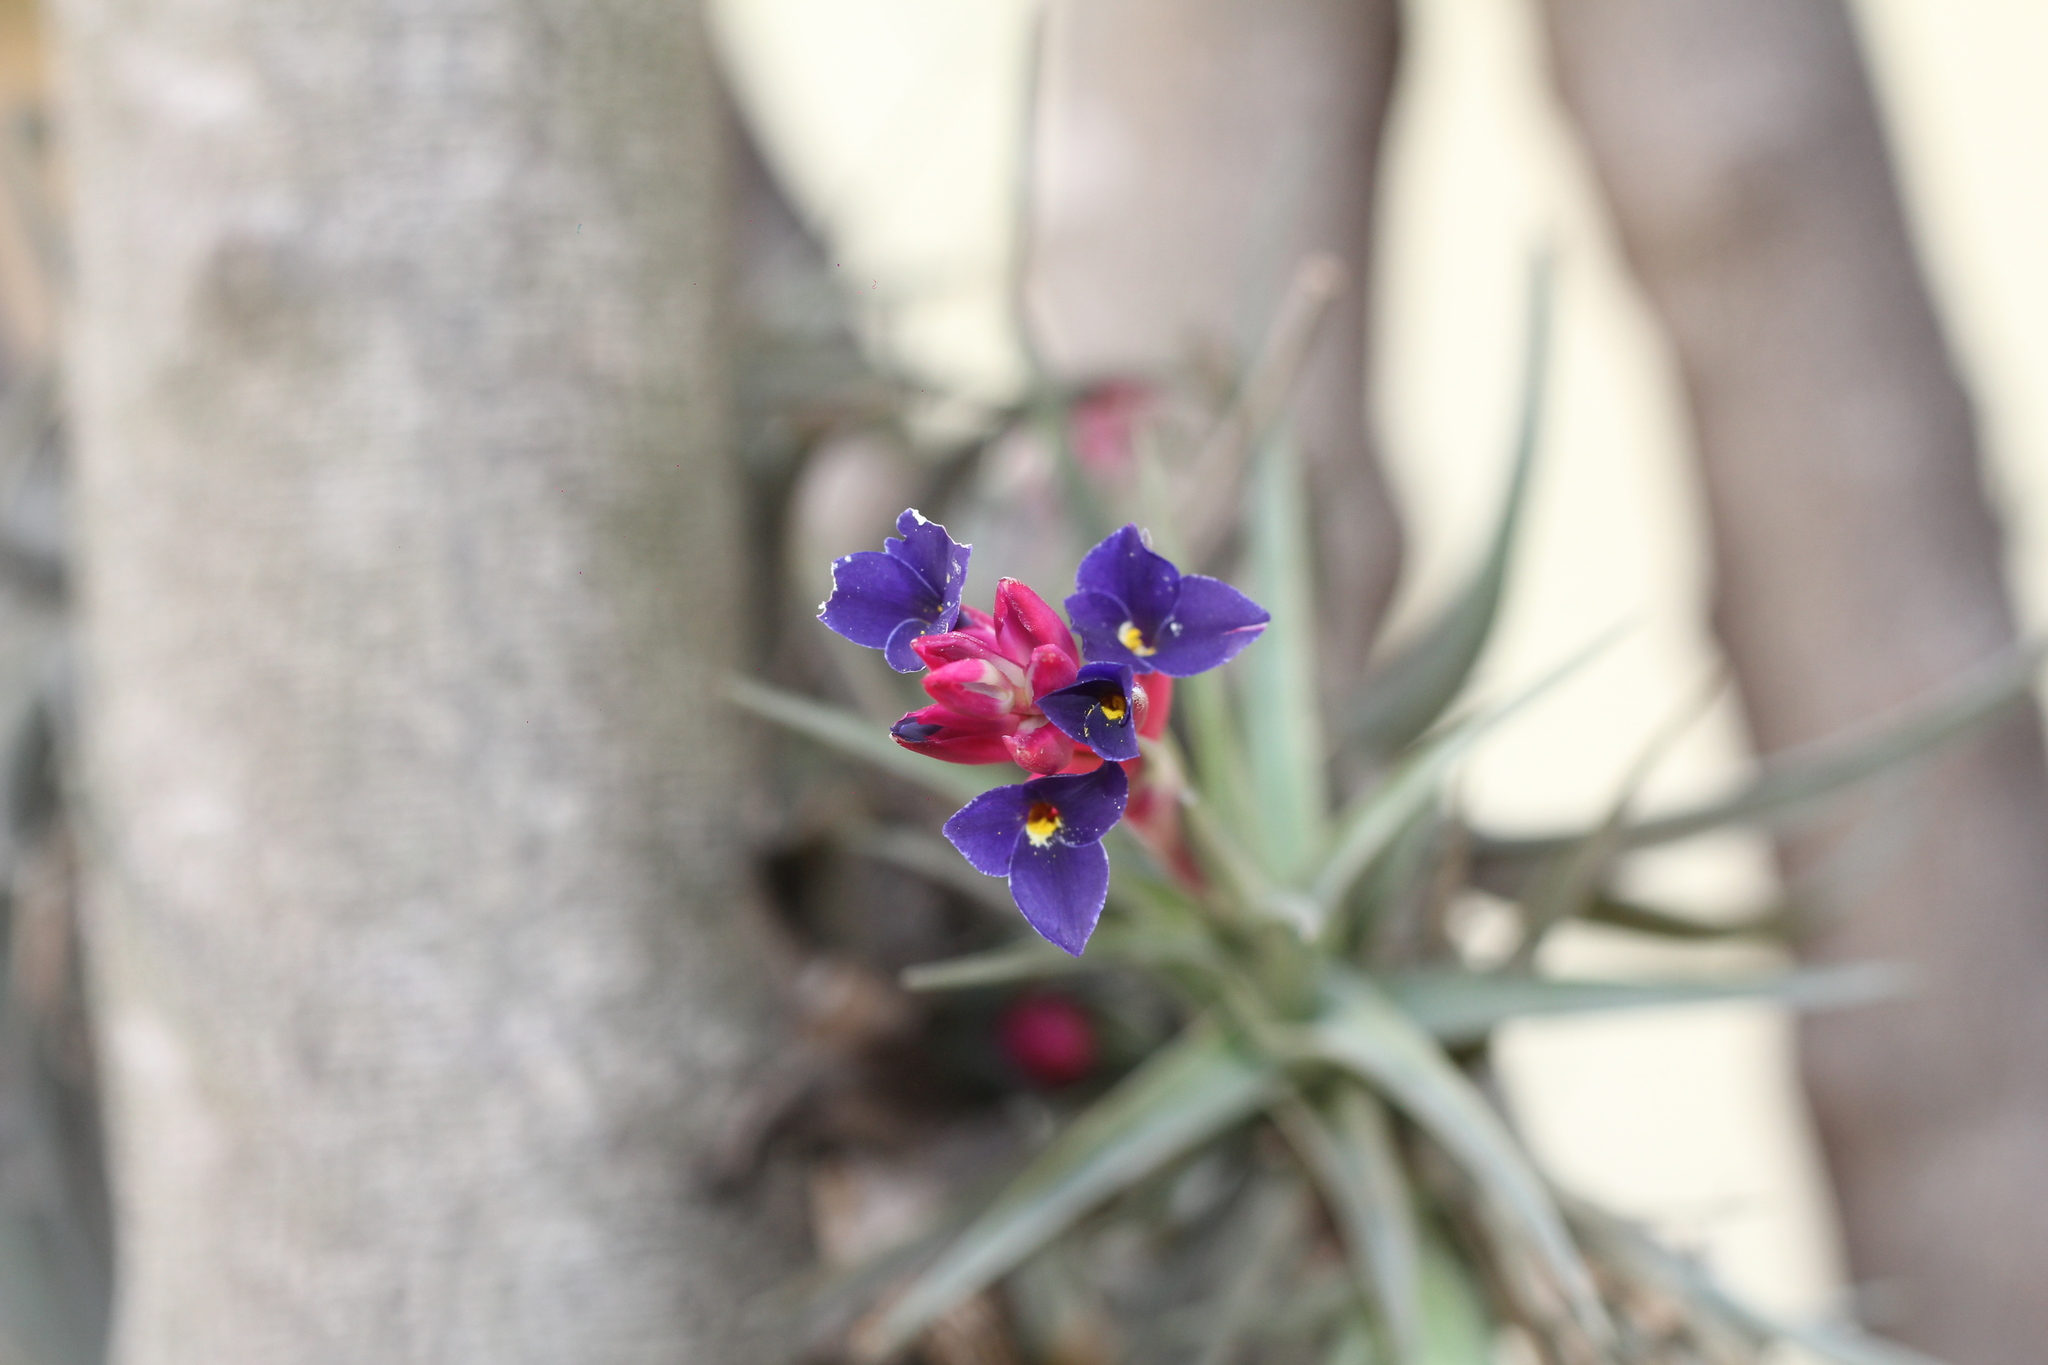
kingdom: Plantae
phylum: Tracheophyta
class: Liliopsida
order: Poales
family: Bromeliaceae
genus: Tillandsia
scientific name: Tillandsia aeranthos
